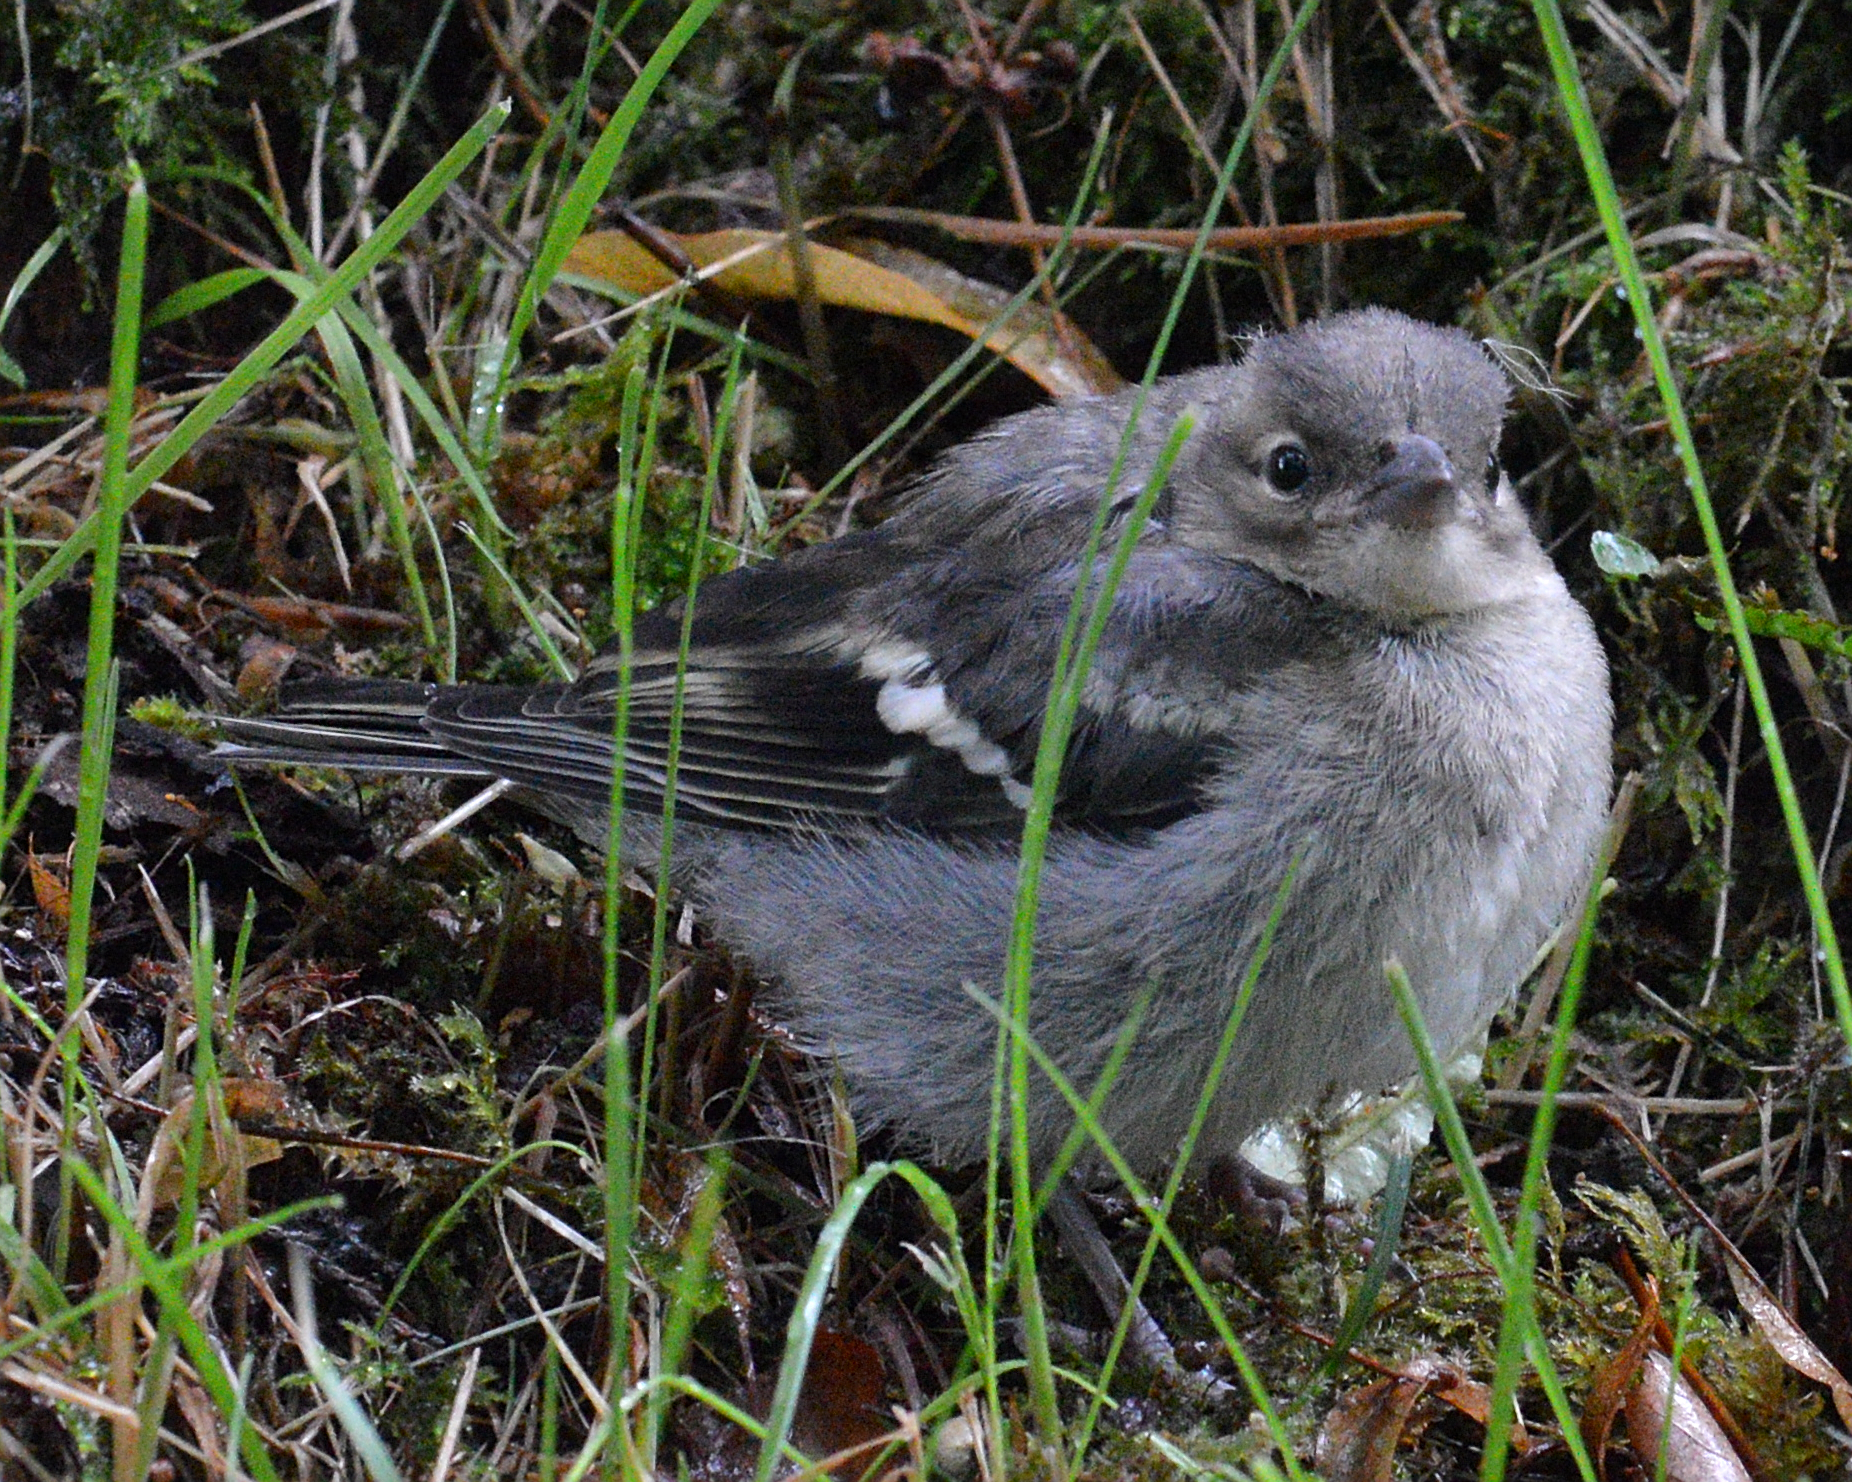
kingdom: Animalia
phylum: Chordata
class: Aves
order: Passeriformes
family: Fringillidae
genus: Fringilla
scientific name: Fringilla coelebs
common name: Common chaffinch
